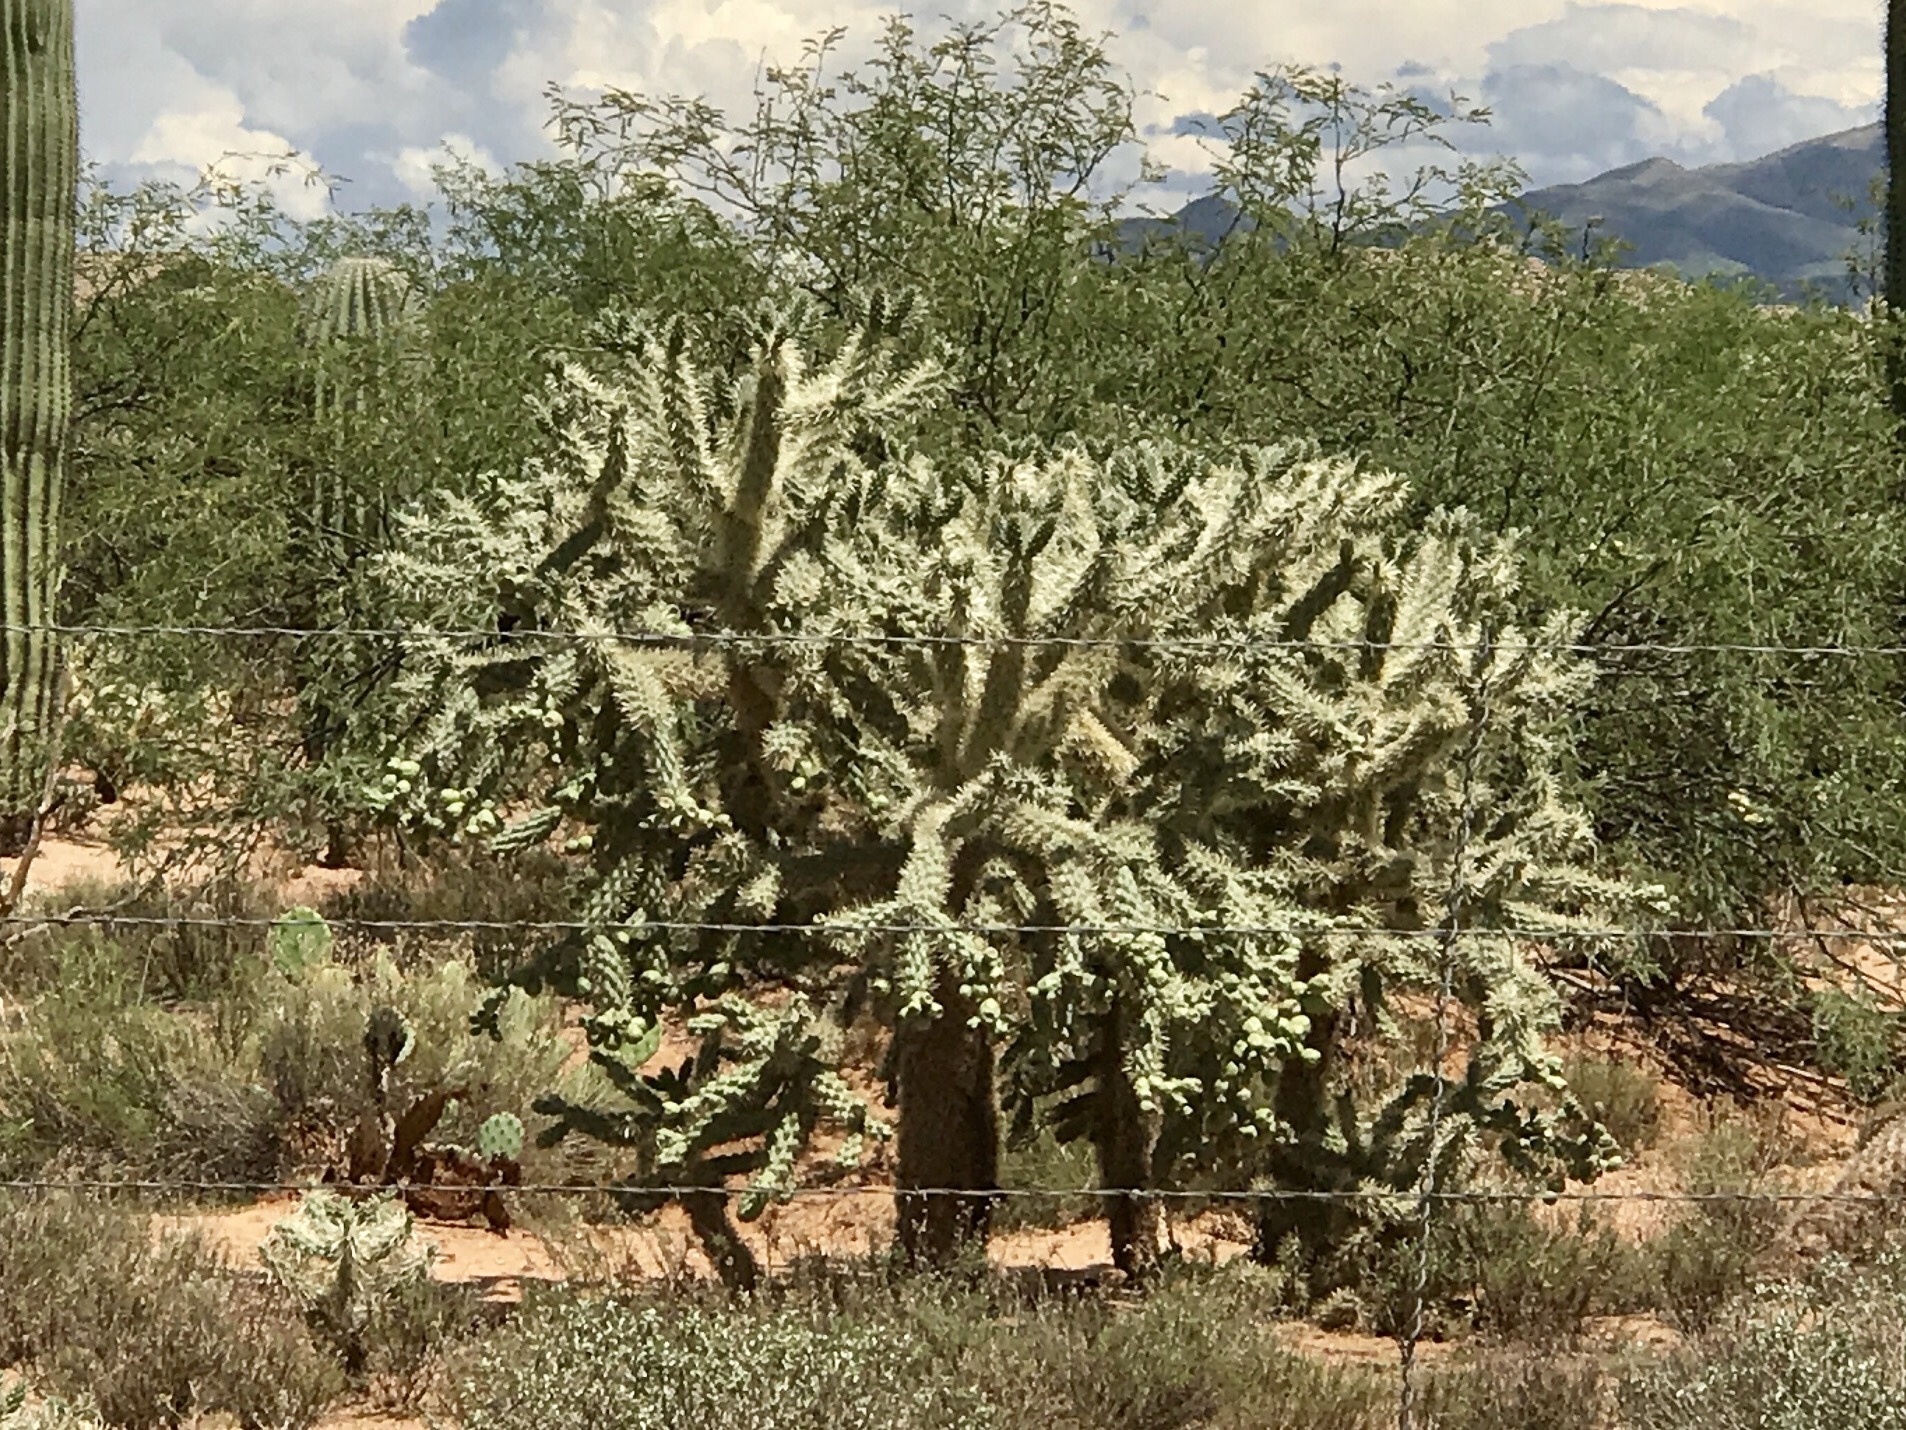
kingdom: Plantae
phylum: Tracheophyta
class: Magnoliopsida
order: Caryophyllales
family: Cactaceae
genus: Cylindropuntia
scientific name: Cylindropuntia fulgida
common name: Jumping cholla
